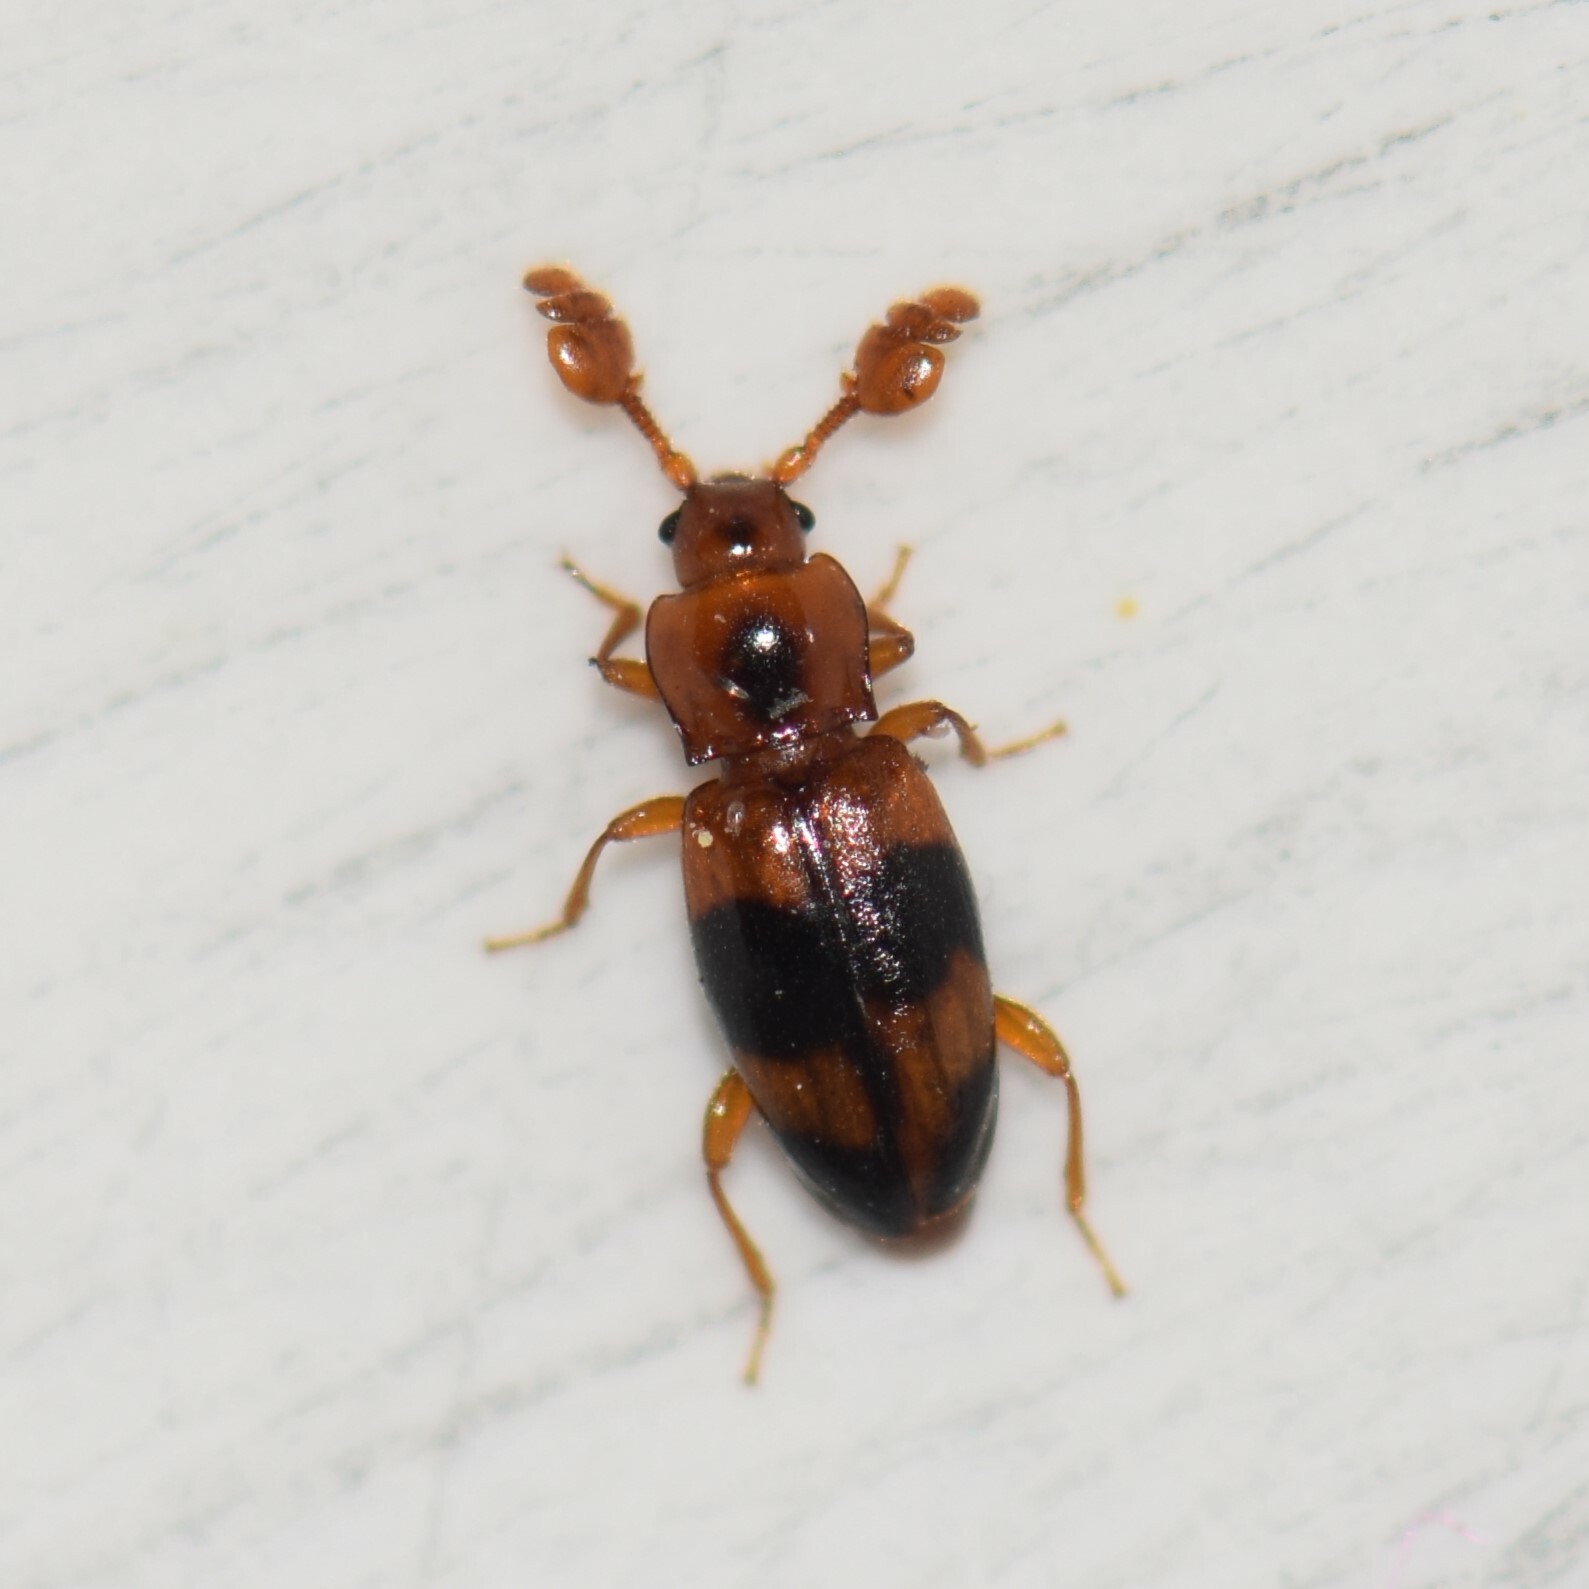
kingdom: Animalia
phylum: Arthropoda
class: Insecta
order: Coleoptera
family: Endomychidae
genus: Phymaphora
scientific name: Phymaphora pulchella
